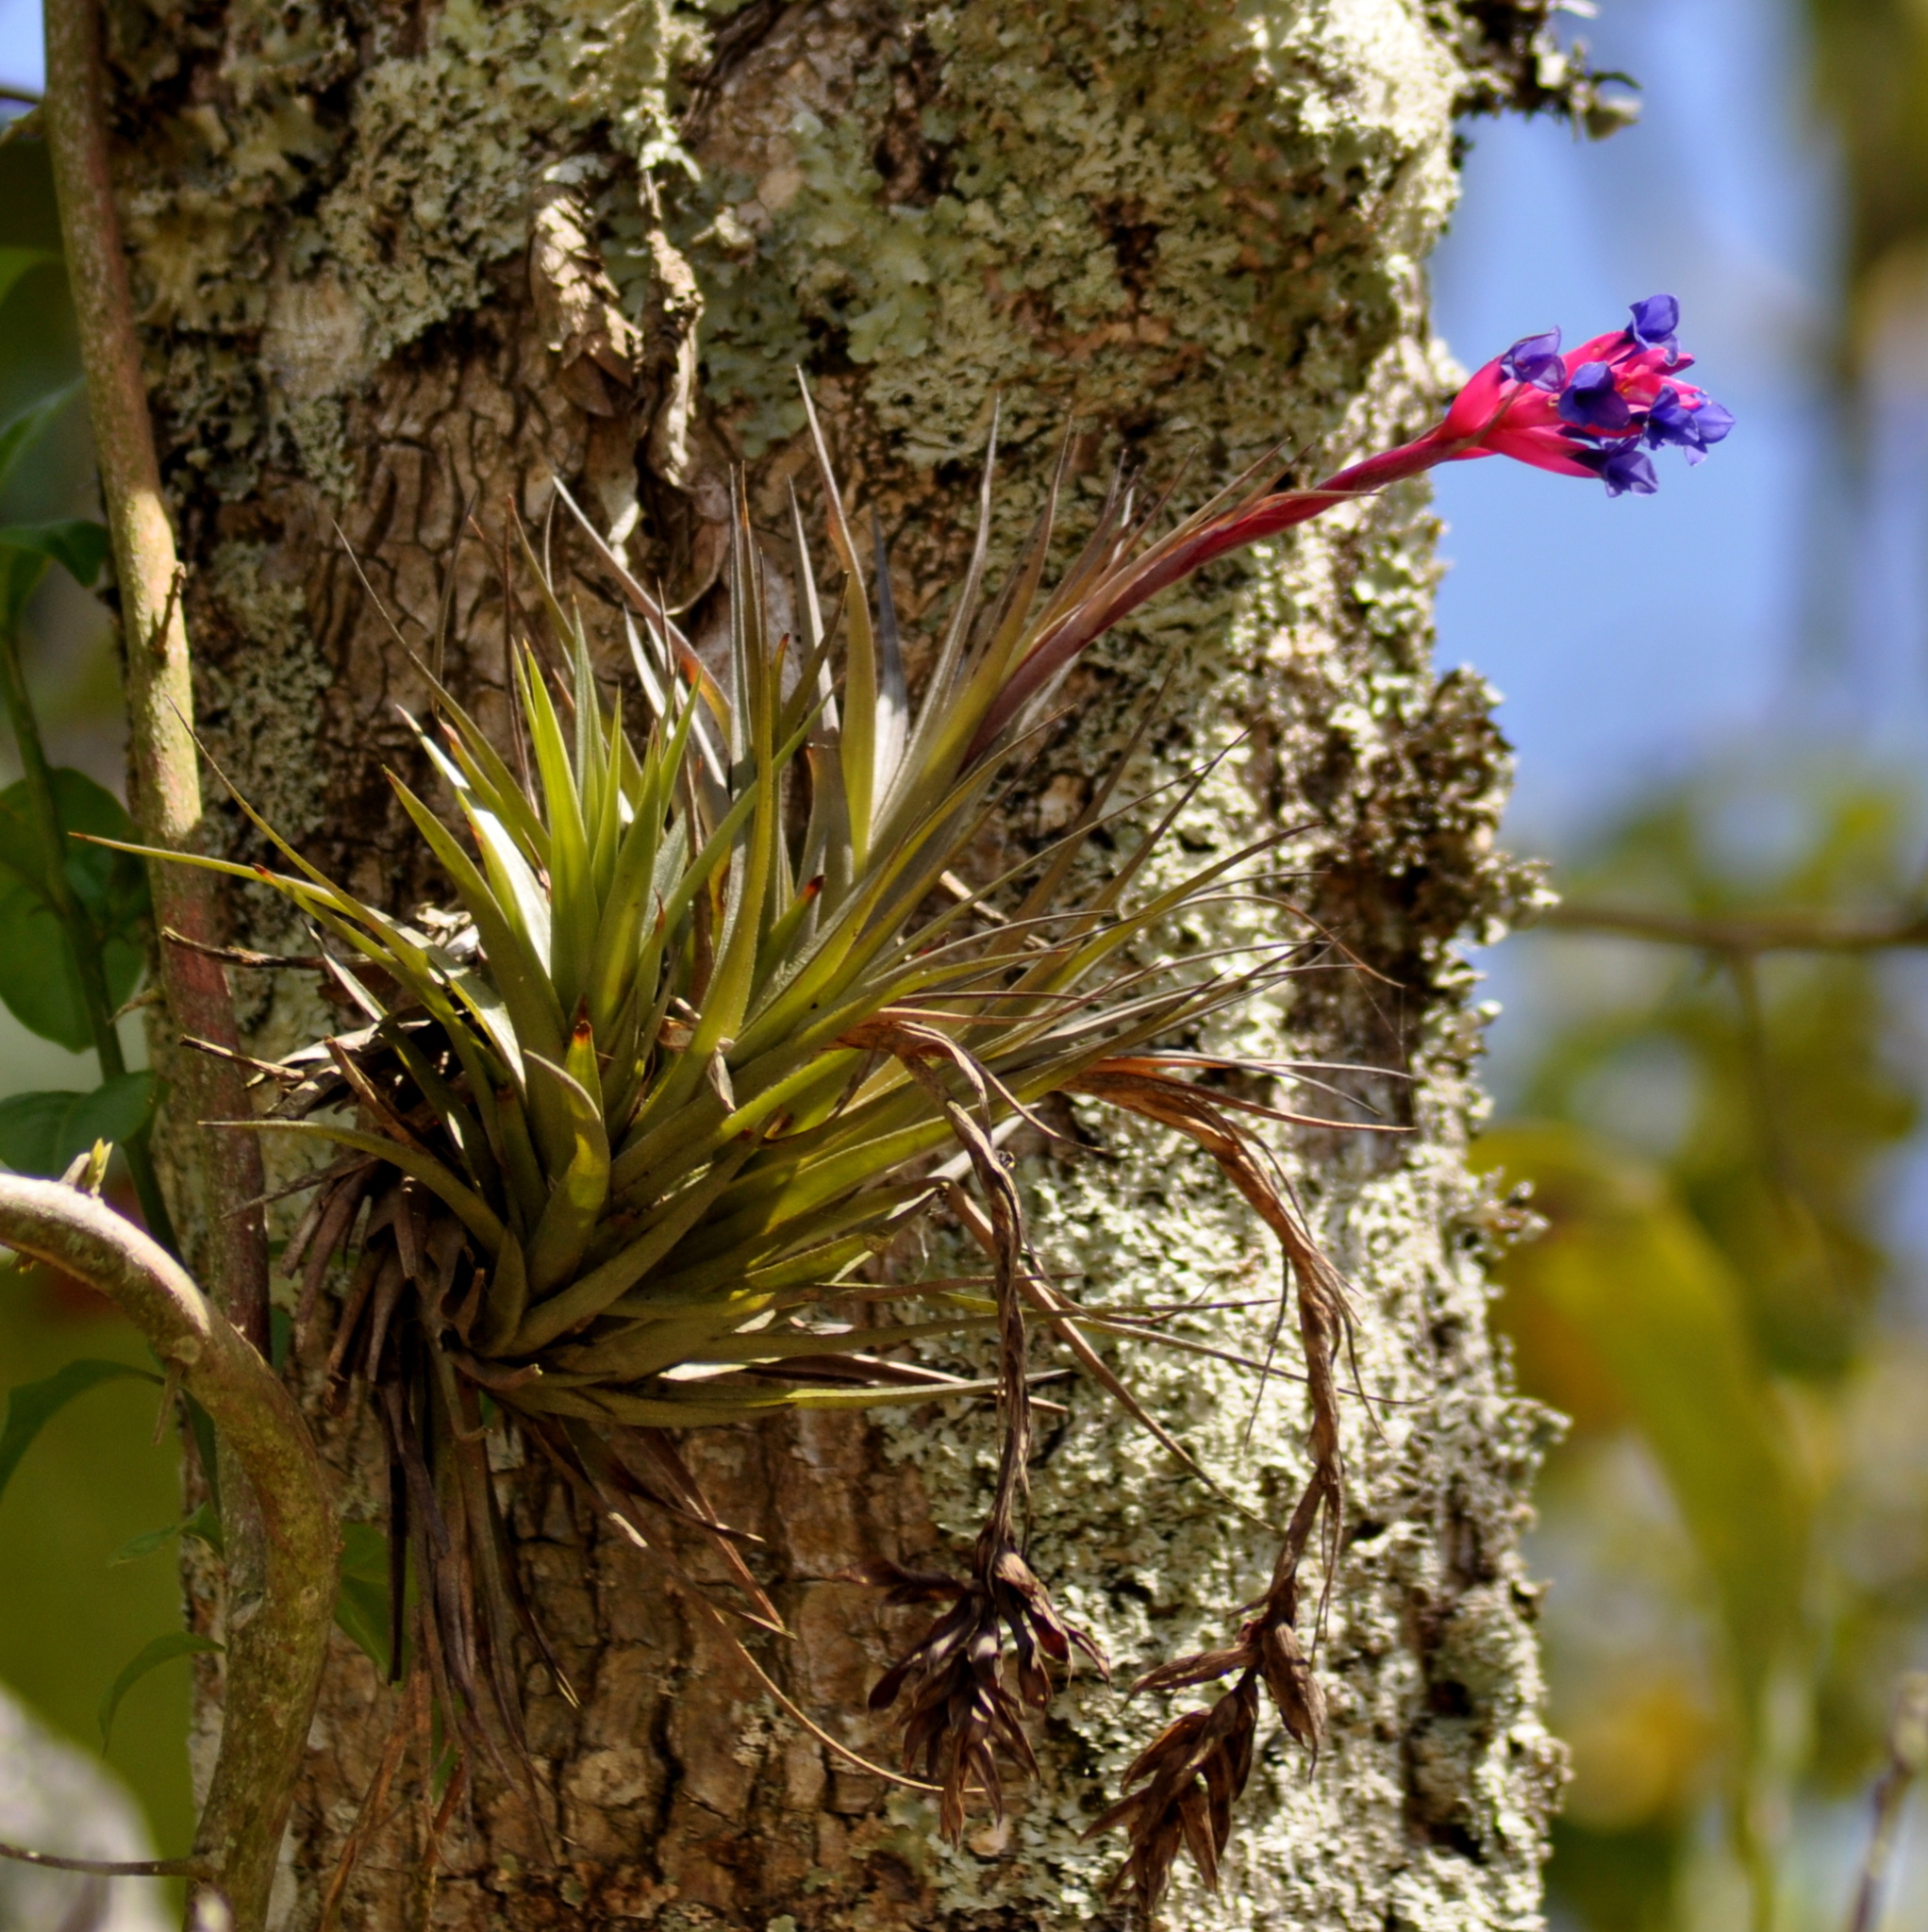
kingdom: Plantae
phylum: Tracheophyta
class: Liliopsida
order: Poales
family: Bromeliaceae
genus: Tillandsia
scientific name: Tillandsia aeranthos
